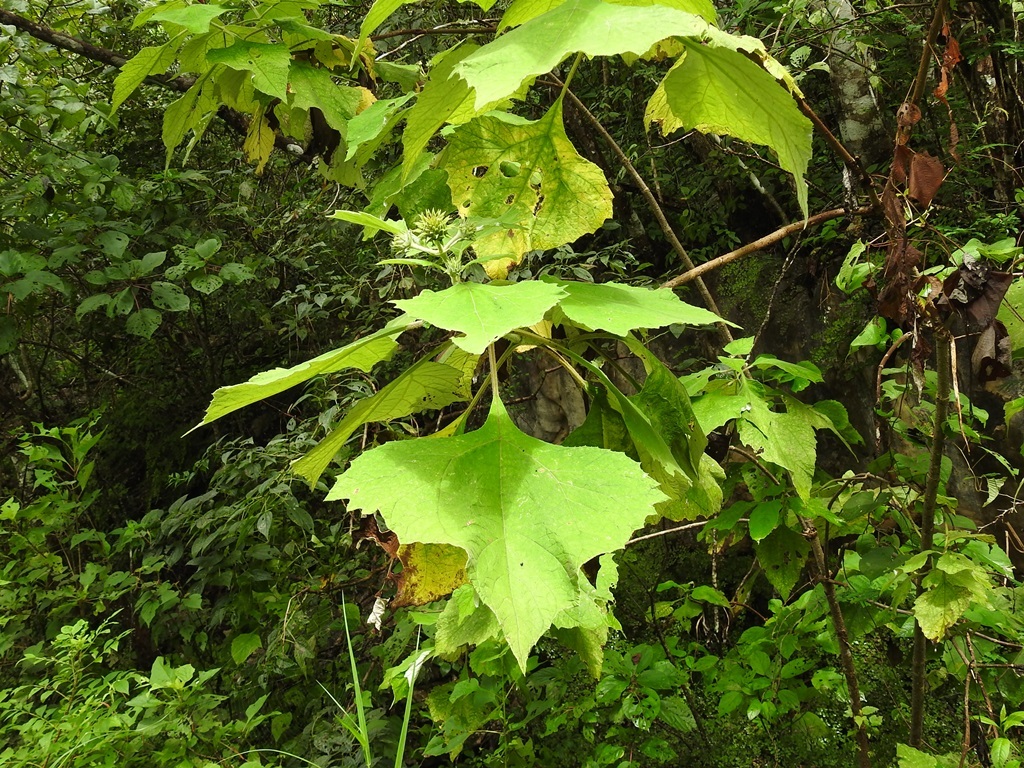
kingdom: Plantae
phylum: Tracheophyta
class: Magnoliopsida
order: Asterales
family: Asteraceae
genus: Sinclairia
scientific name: Sinclairia andrieuxii
